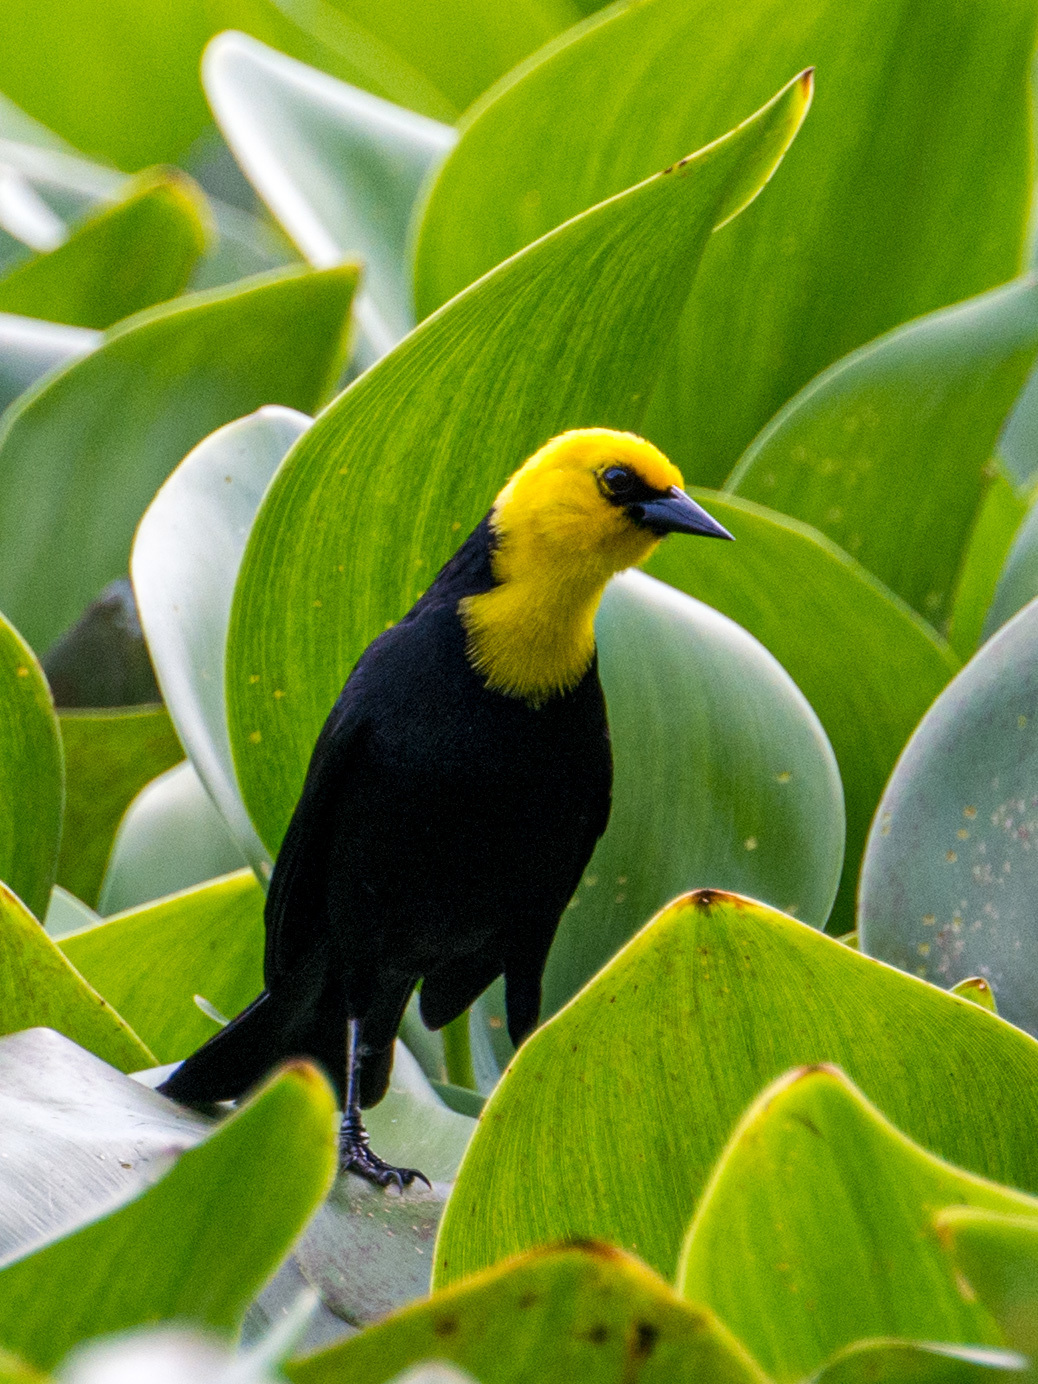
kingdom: Animalia
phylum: Chordata
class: Aves
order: Passeriformes
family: Icteridae
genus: Chrysomus
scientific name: Chrysomus icterocephalus
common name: Yellow-hooded blackbird
